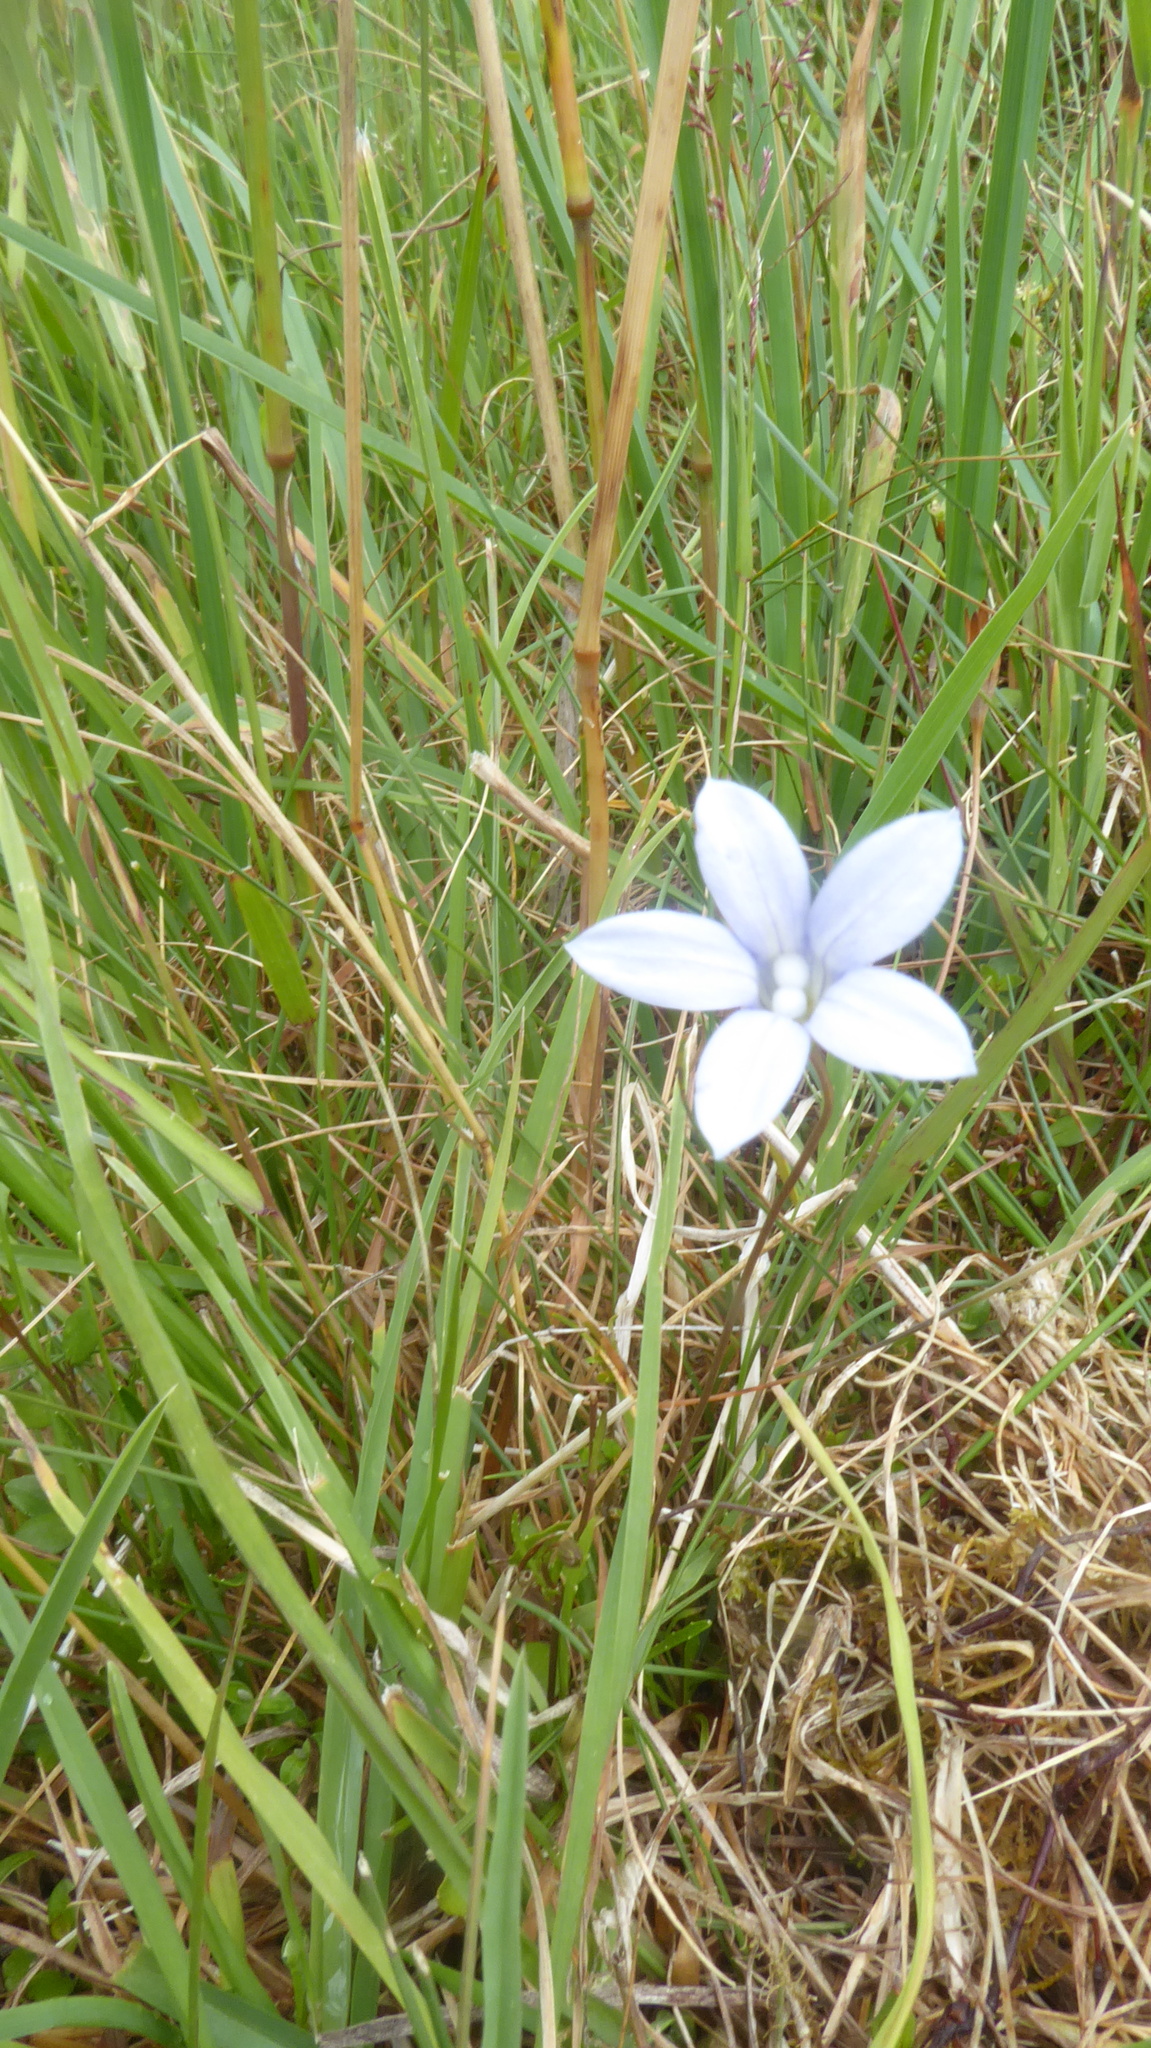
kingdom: Plantae
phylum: Tracheophyta
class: Magnoliopsida
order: Asterales
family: Campanulaceae
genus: Wahlenbergia
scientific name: Wahlenbergia albomarginata
